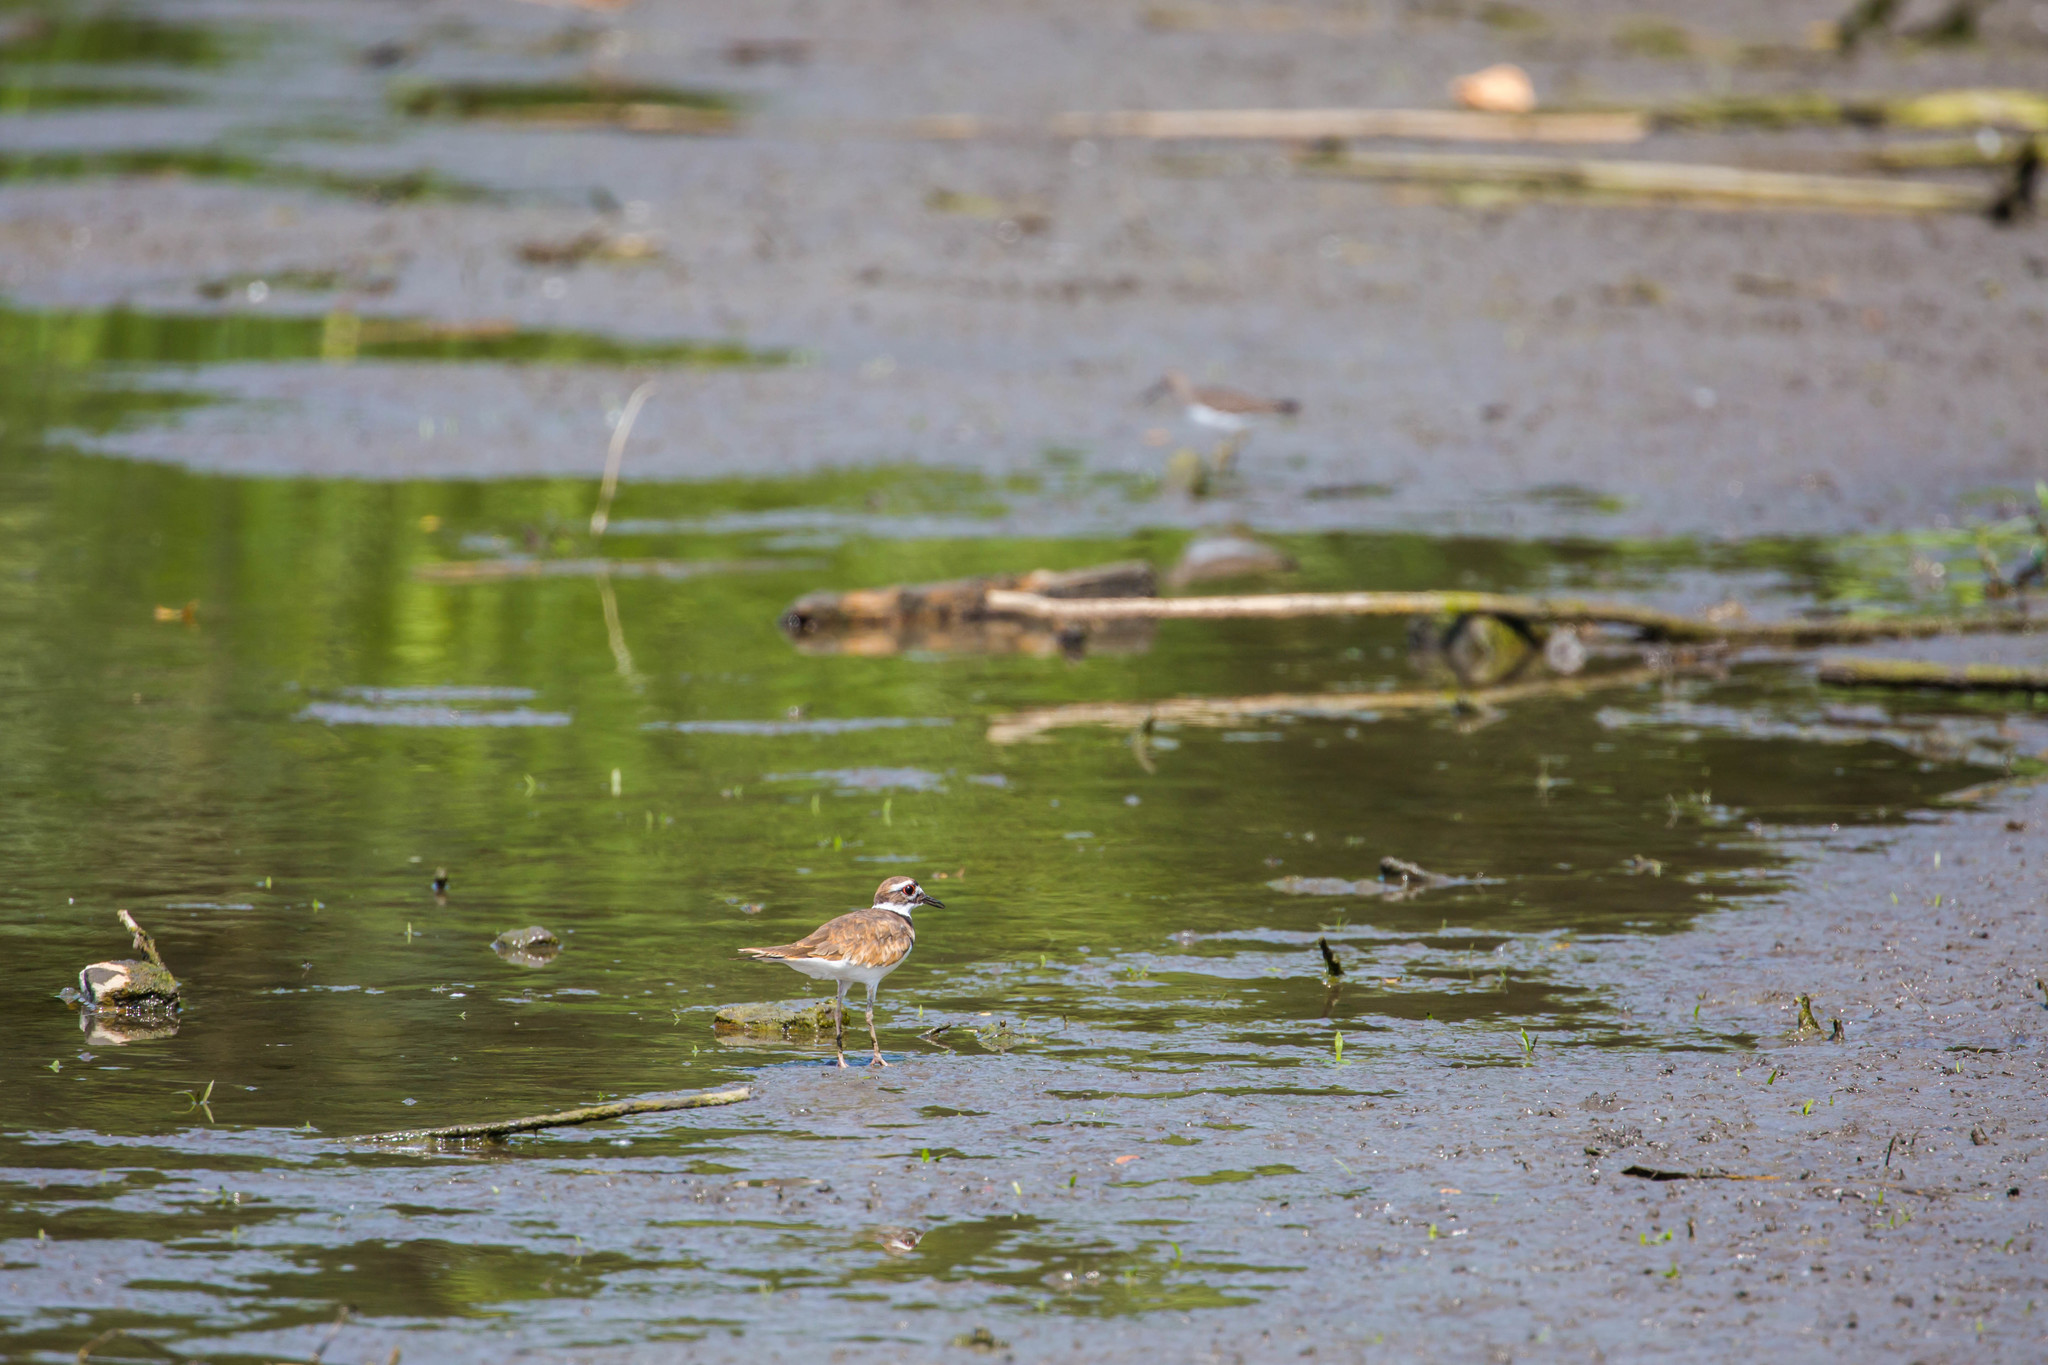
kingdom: Animalia
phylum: Chordata
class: Aves
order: Charadriiformes
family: Charadriidae
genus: Charadrius
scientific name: Charadrius vociferus
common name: Killdeer
